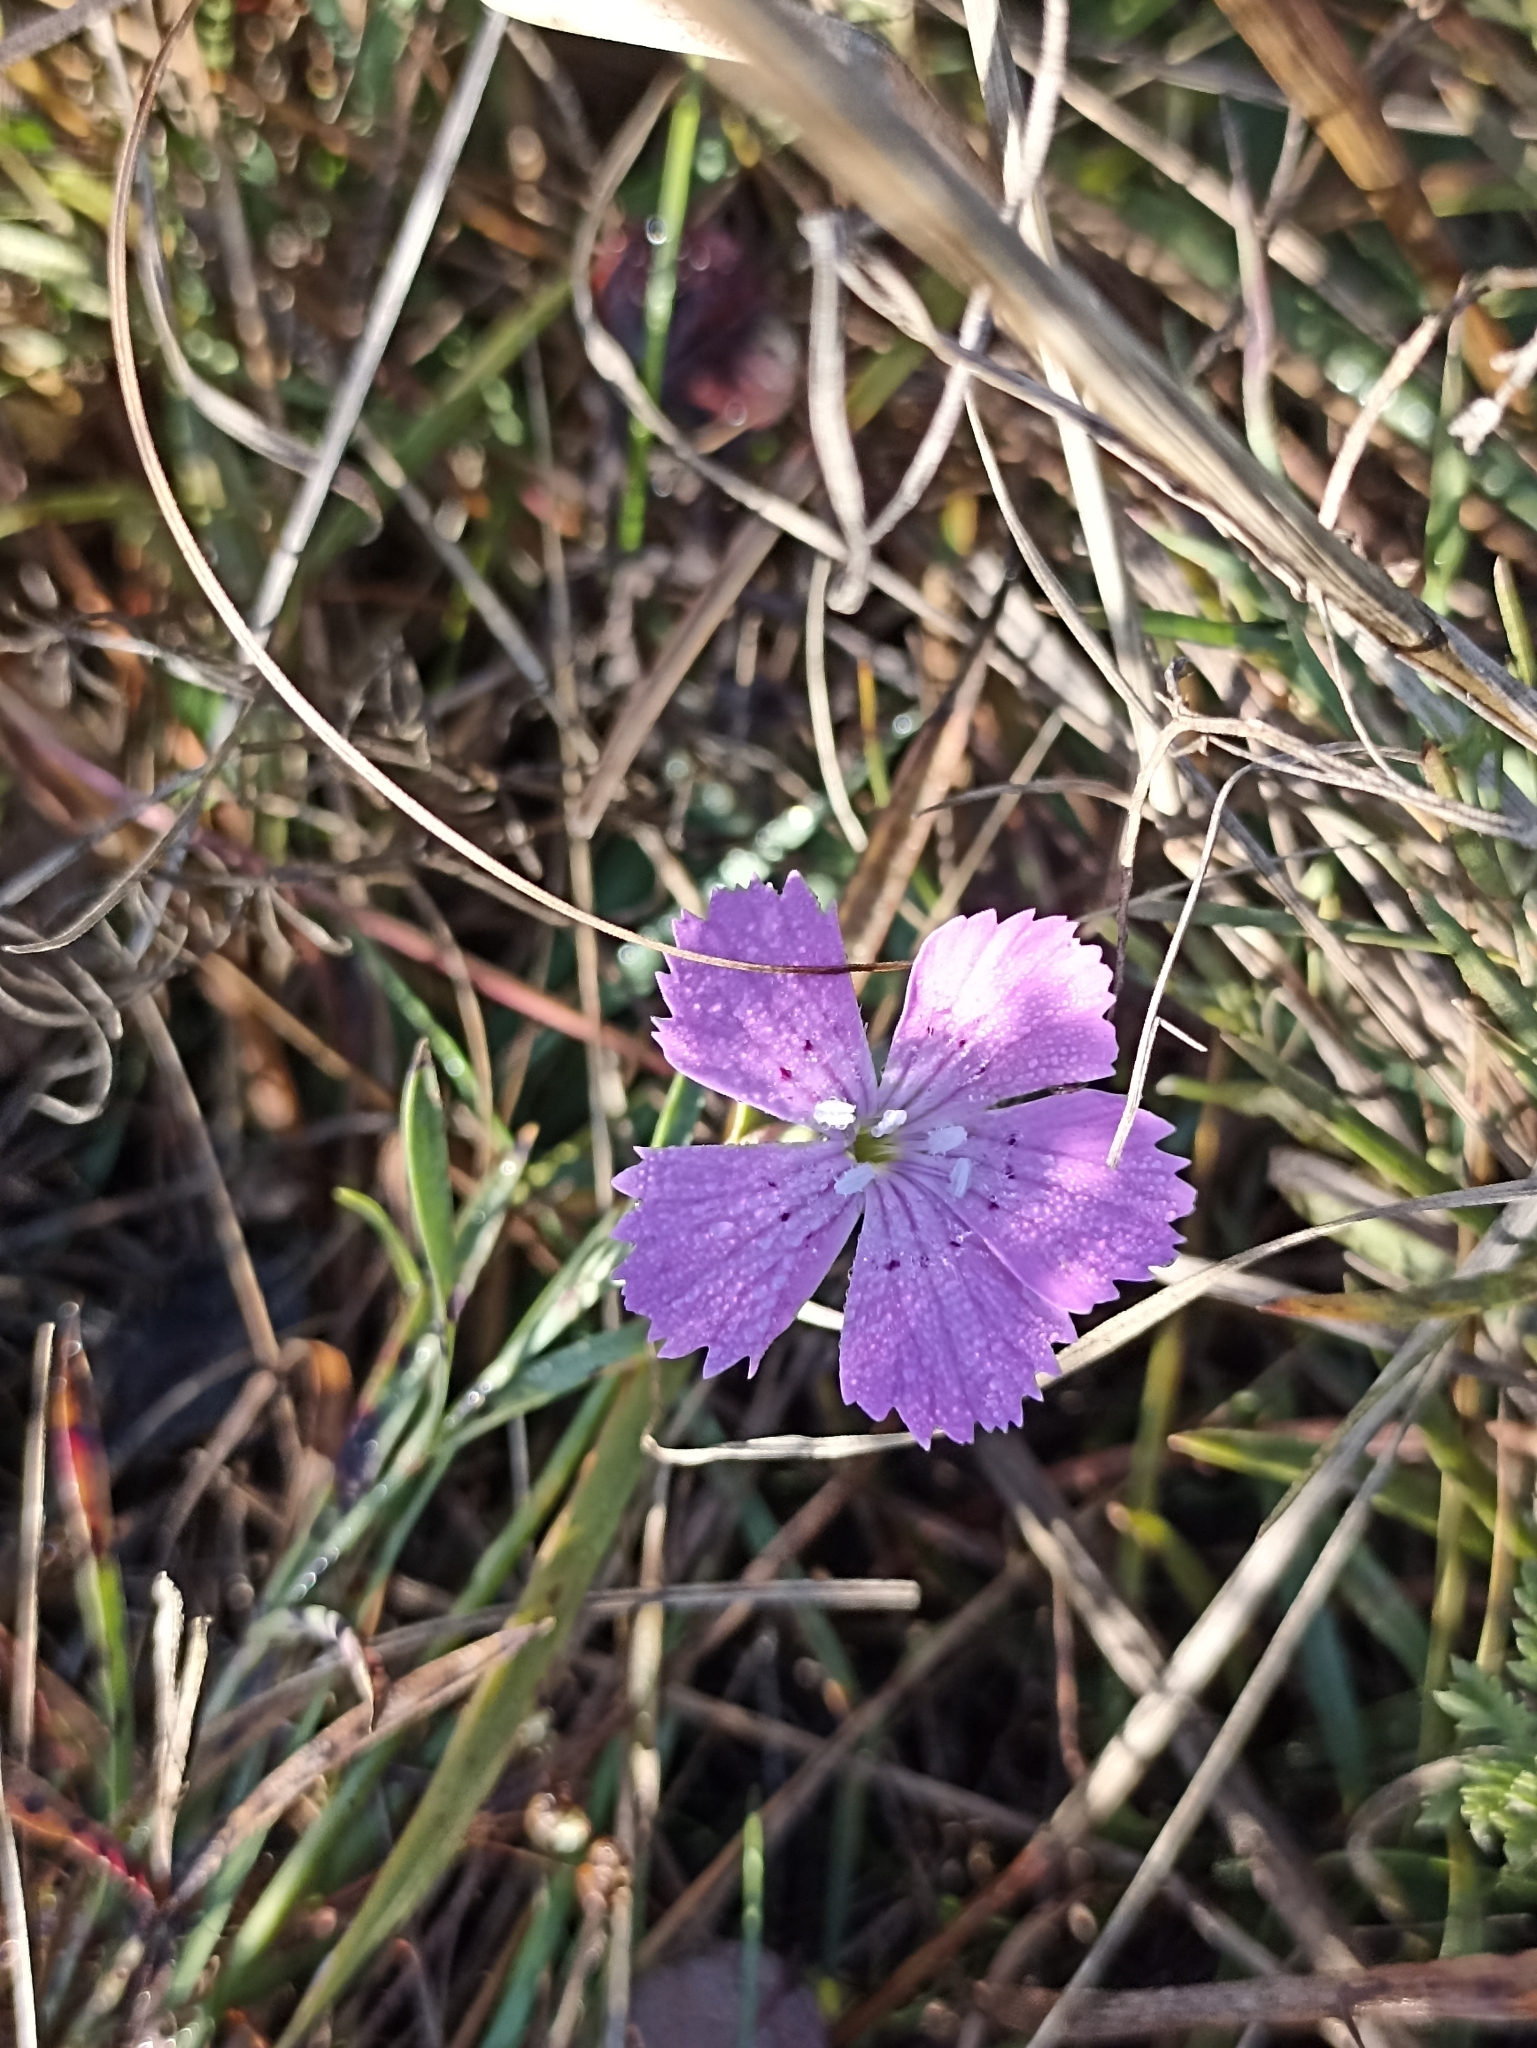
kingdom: Plantae
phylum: Tracheophyta
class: Magnoliopsida
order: Caryophyllales
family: Caryophyllaceae
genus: Dianthus
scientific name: Dianthus chinensis
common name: Rainbow pink
